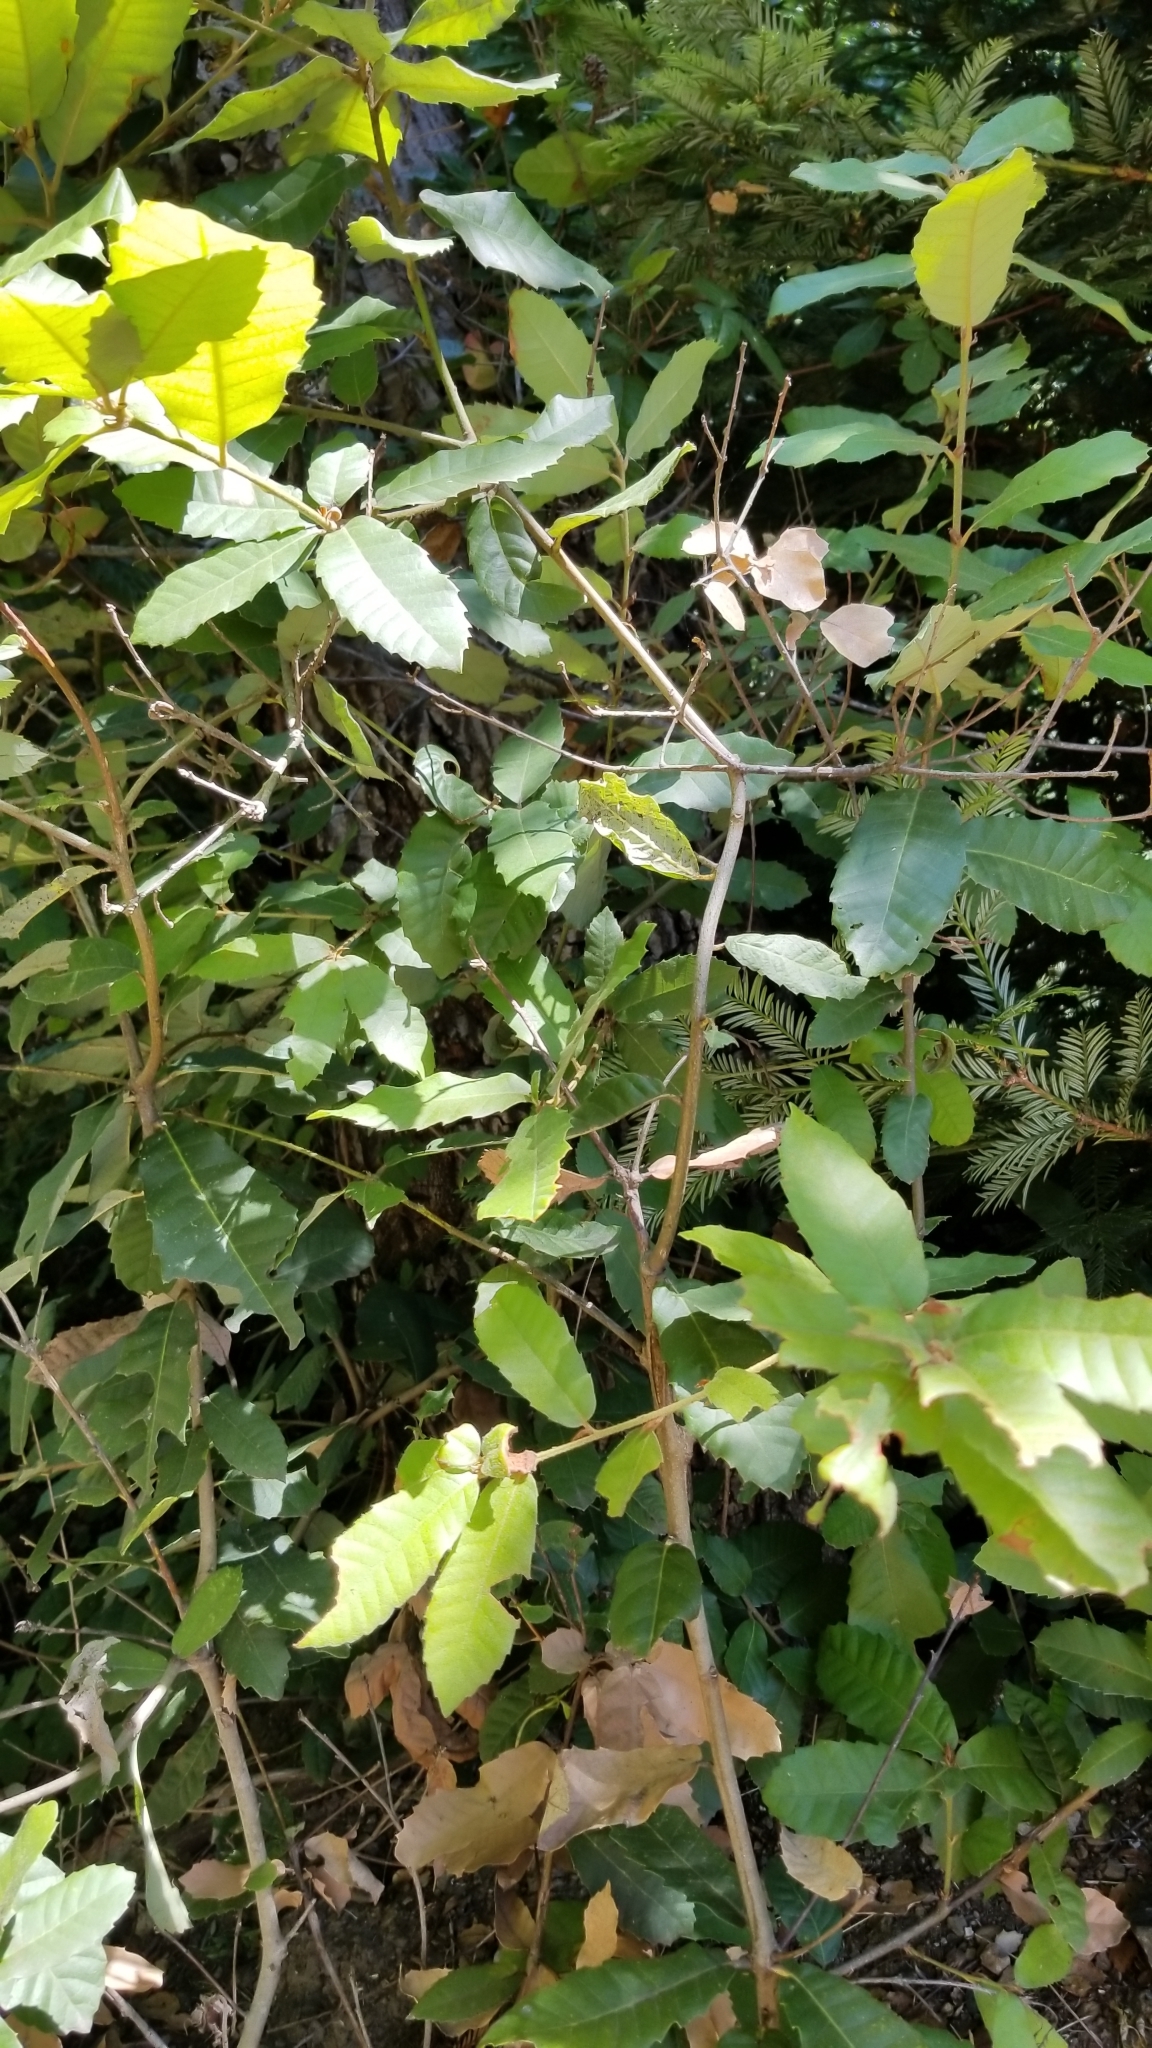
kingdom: Plantae
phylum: Tracheophyta
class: Magnoliopsida
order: Fagales
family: Fagaceae
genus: Notholithocarpus
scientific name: Notholithocarpus densiflorus
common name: Tan bark oak
